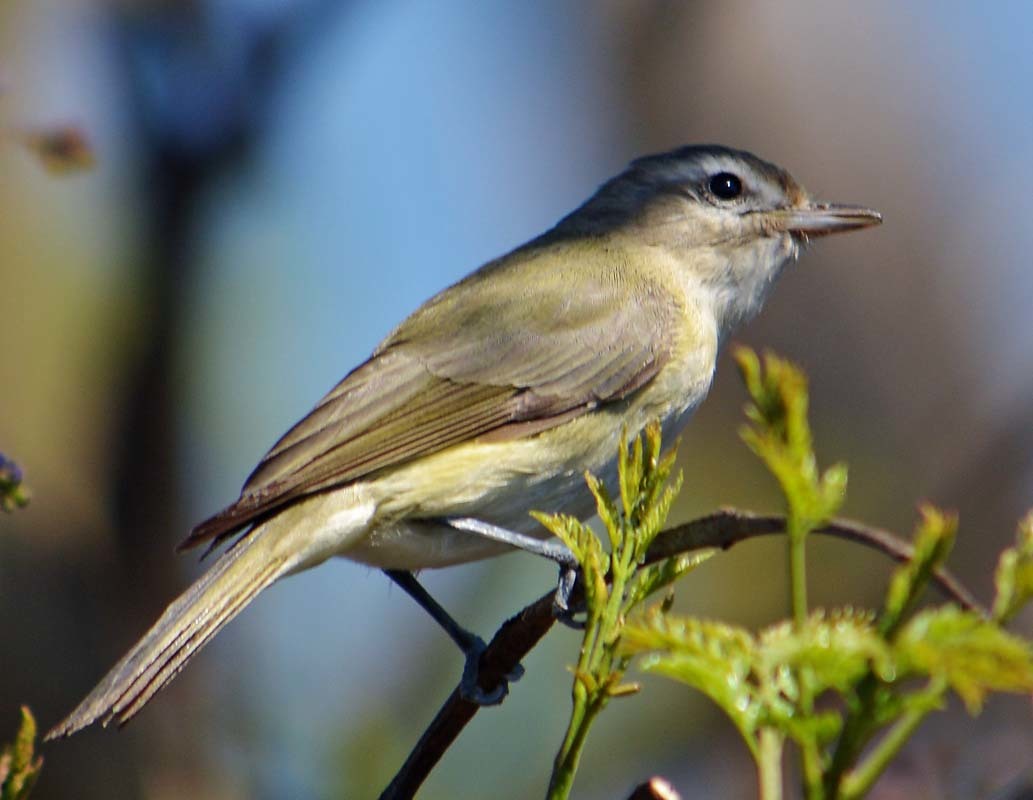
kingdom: Animalia
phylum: Chordata
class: Aves
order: Passeriformes
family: Vireonidae
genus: Vireo
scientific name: Vireo gilvus
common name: Warbling vireo
